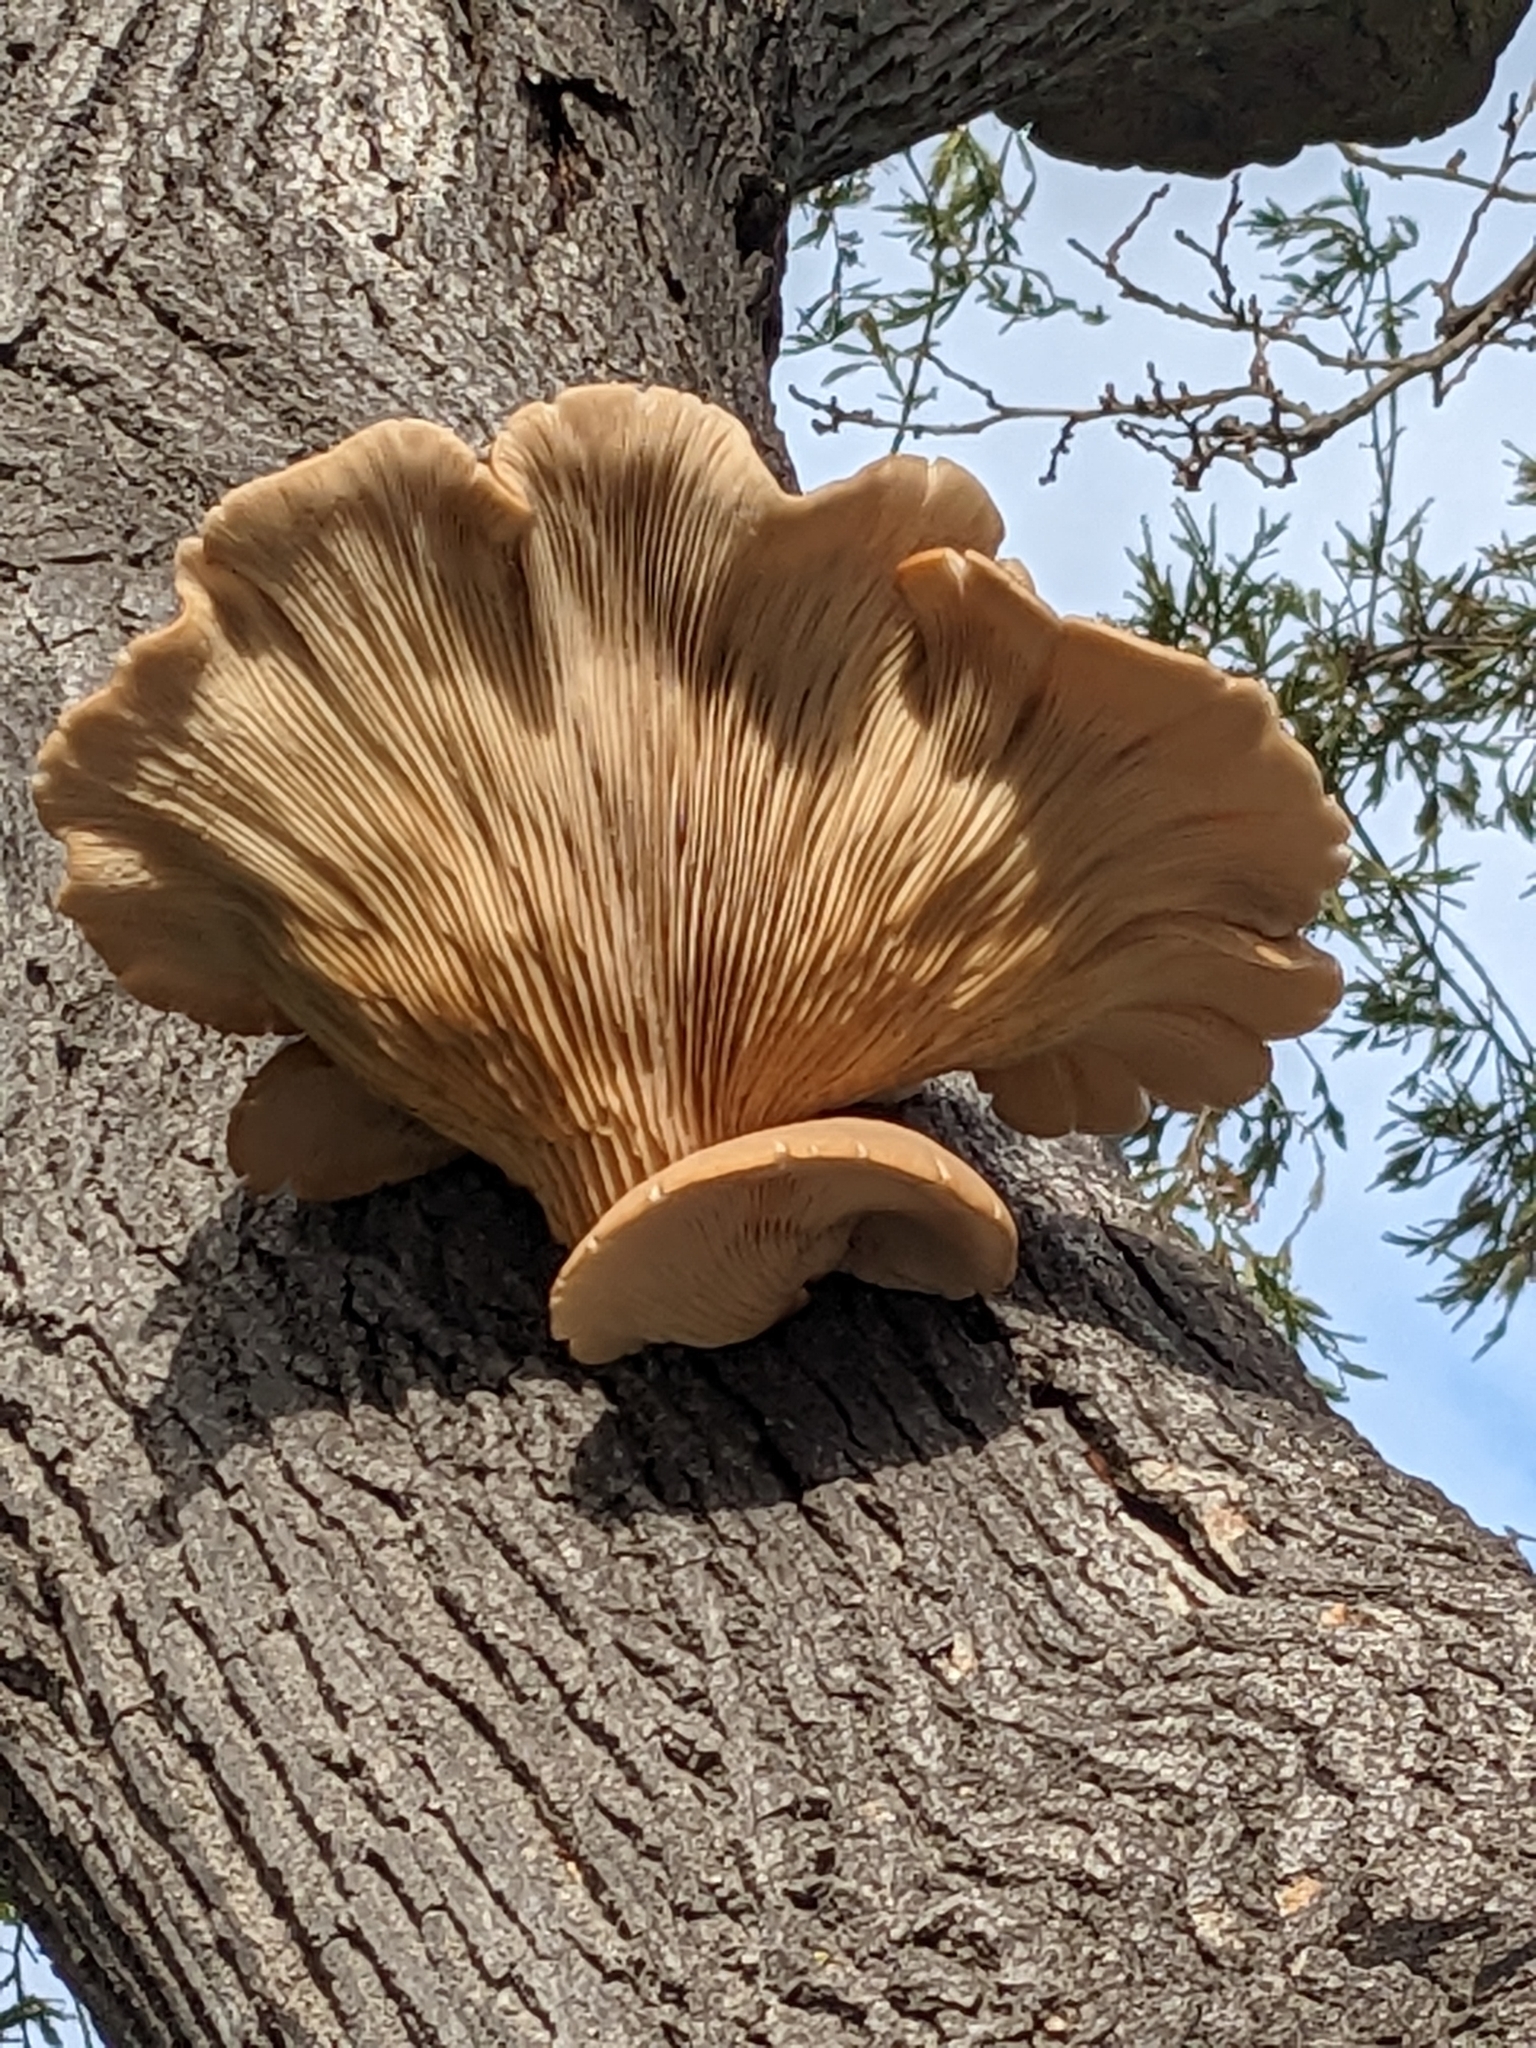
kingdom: Fungi
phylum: Basidiomycota
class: Agaricomycetes
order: Agaricales
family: Pleurotaceae
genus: Pleurotus
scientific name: Pleurotus ostreatus
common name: Oyster mushroom
